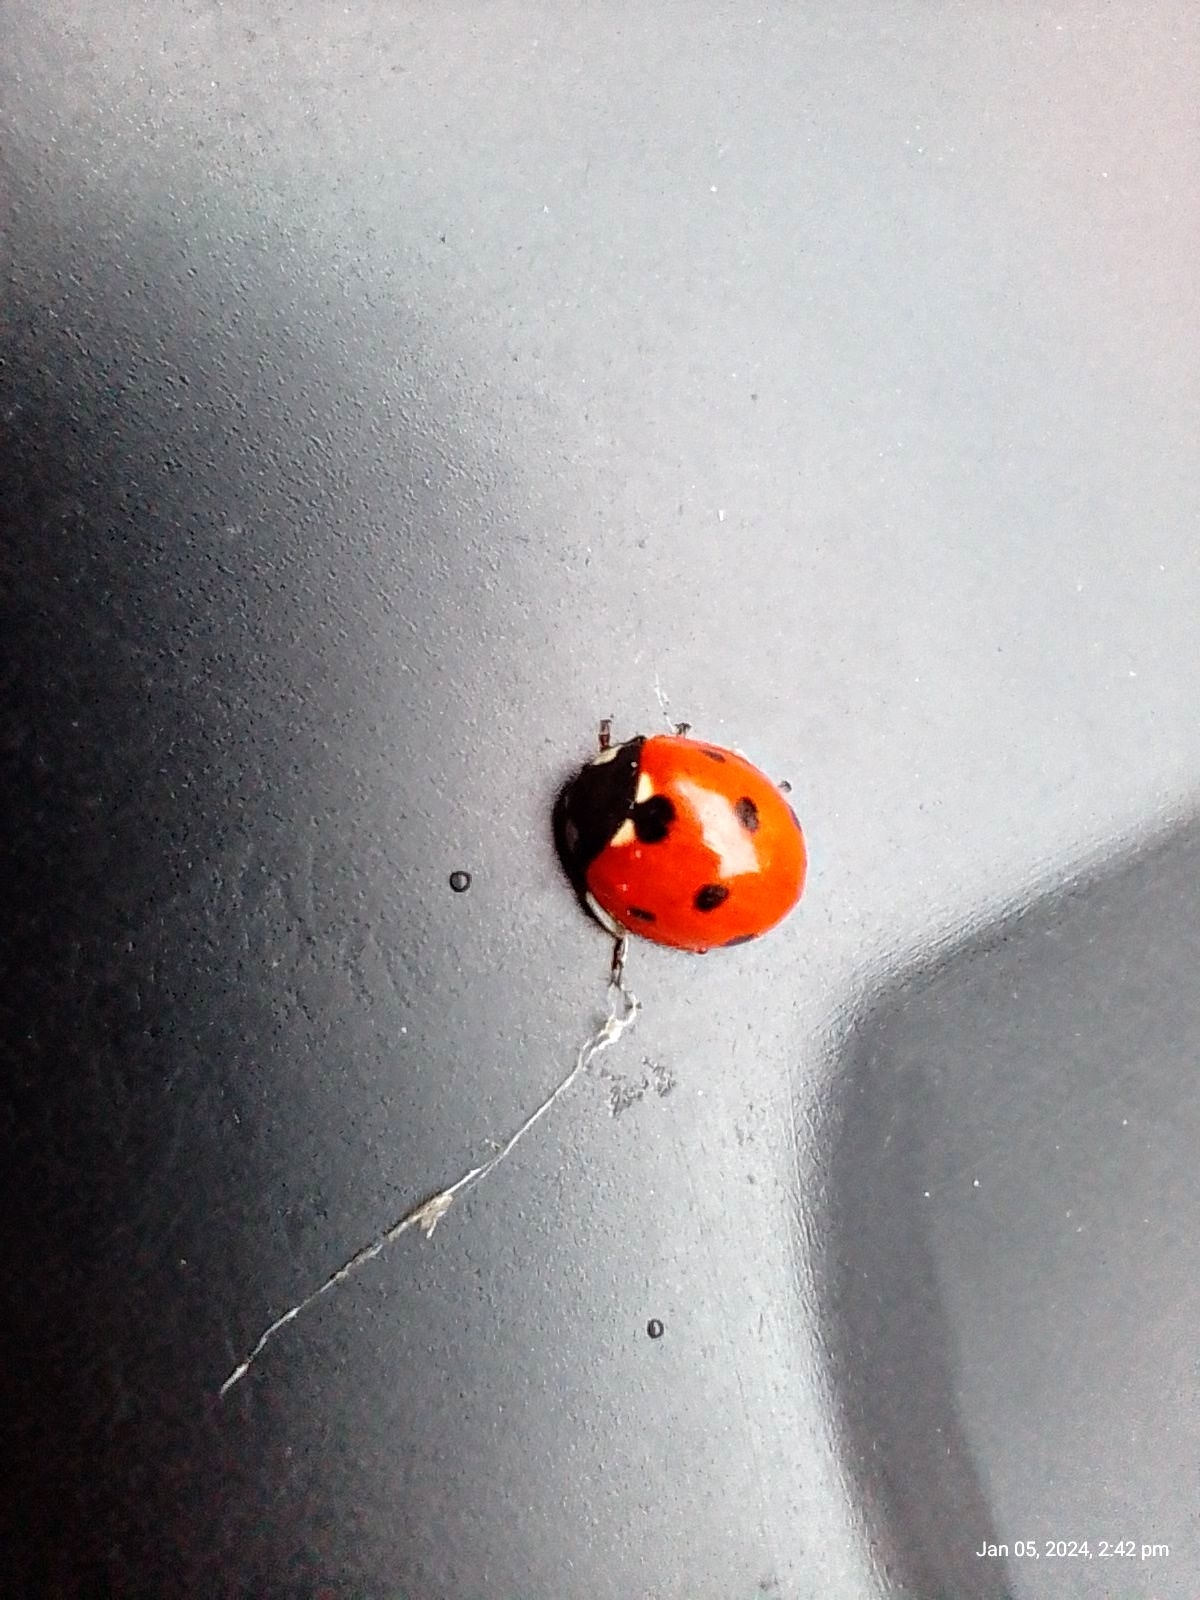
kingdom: Animalia
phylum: Arthropoda
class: Insecta
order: Coleoptera
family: Coccinellidae
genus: Coccinella
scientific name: Coccinella septempunctata
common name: Sevenspotted lady beetle
